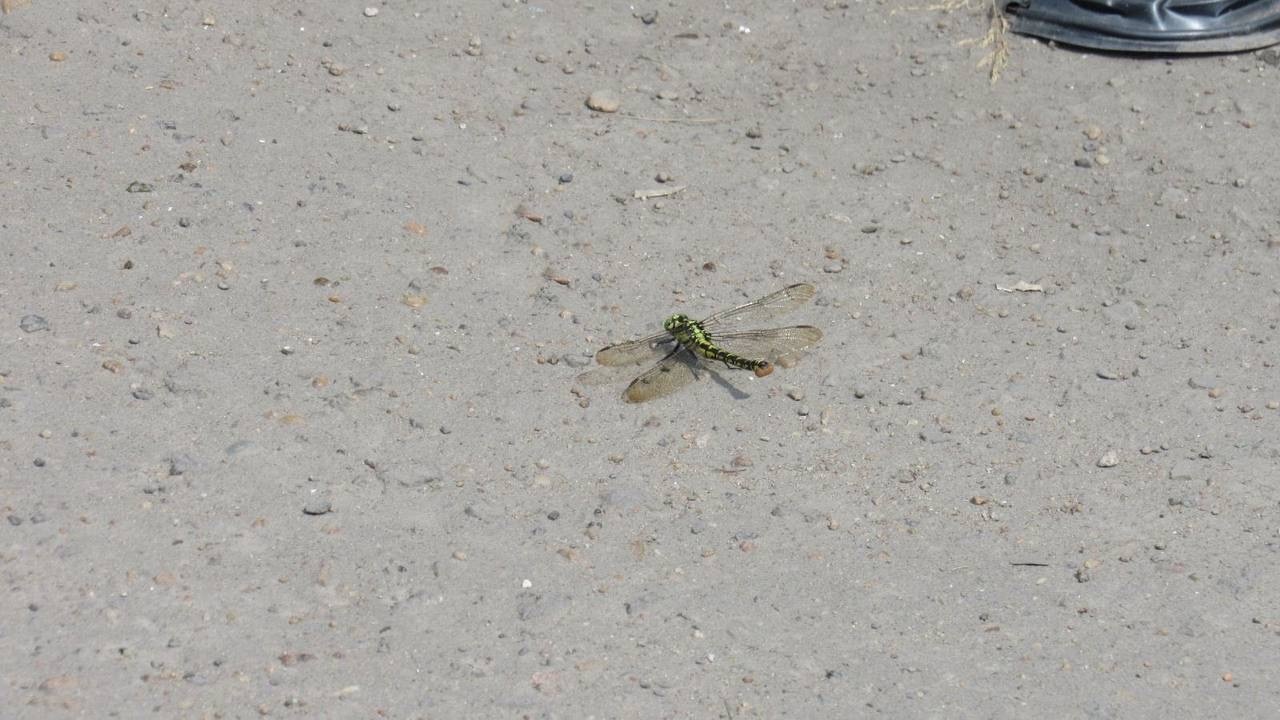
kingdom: Animalia
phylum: Arthropoda
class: Insecta
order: Odonata
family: Gomphidae
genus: Nihonogomphus
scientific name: Nihonogomphus ruptus
